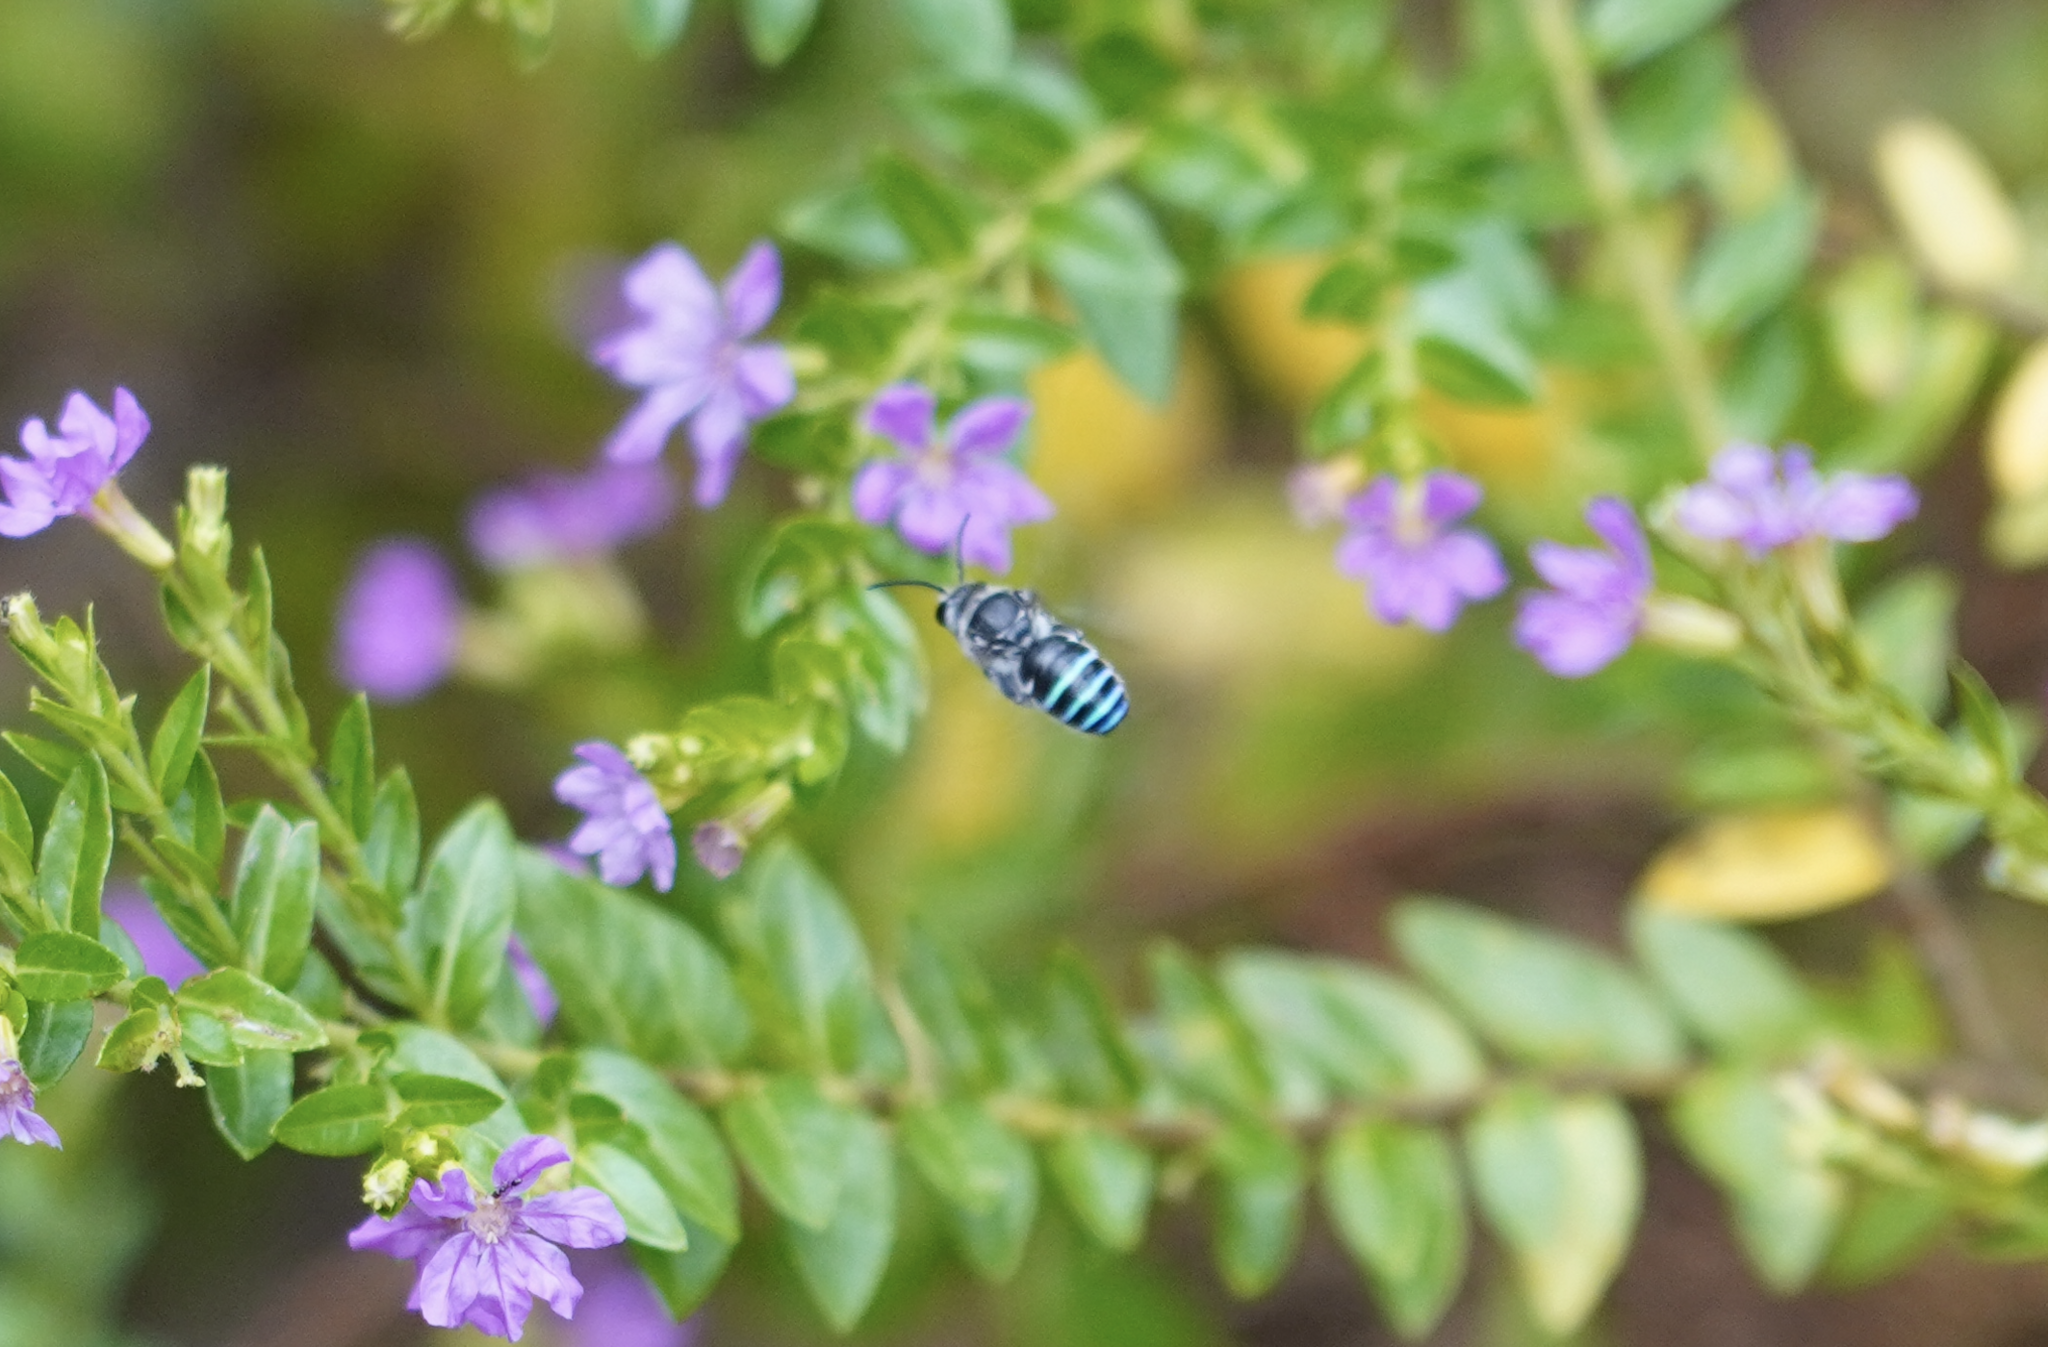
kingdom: Animalia
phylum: Arthropoda
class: Insecta
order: Hymenoptera
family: Halictidae
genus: Nomia
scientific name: Nomia incerta
